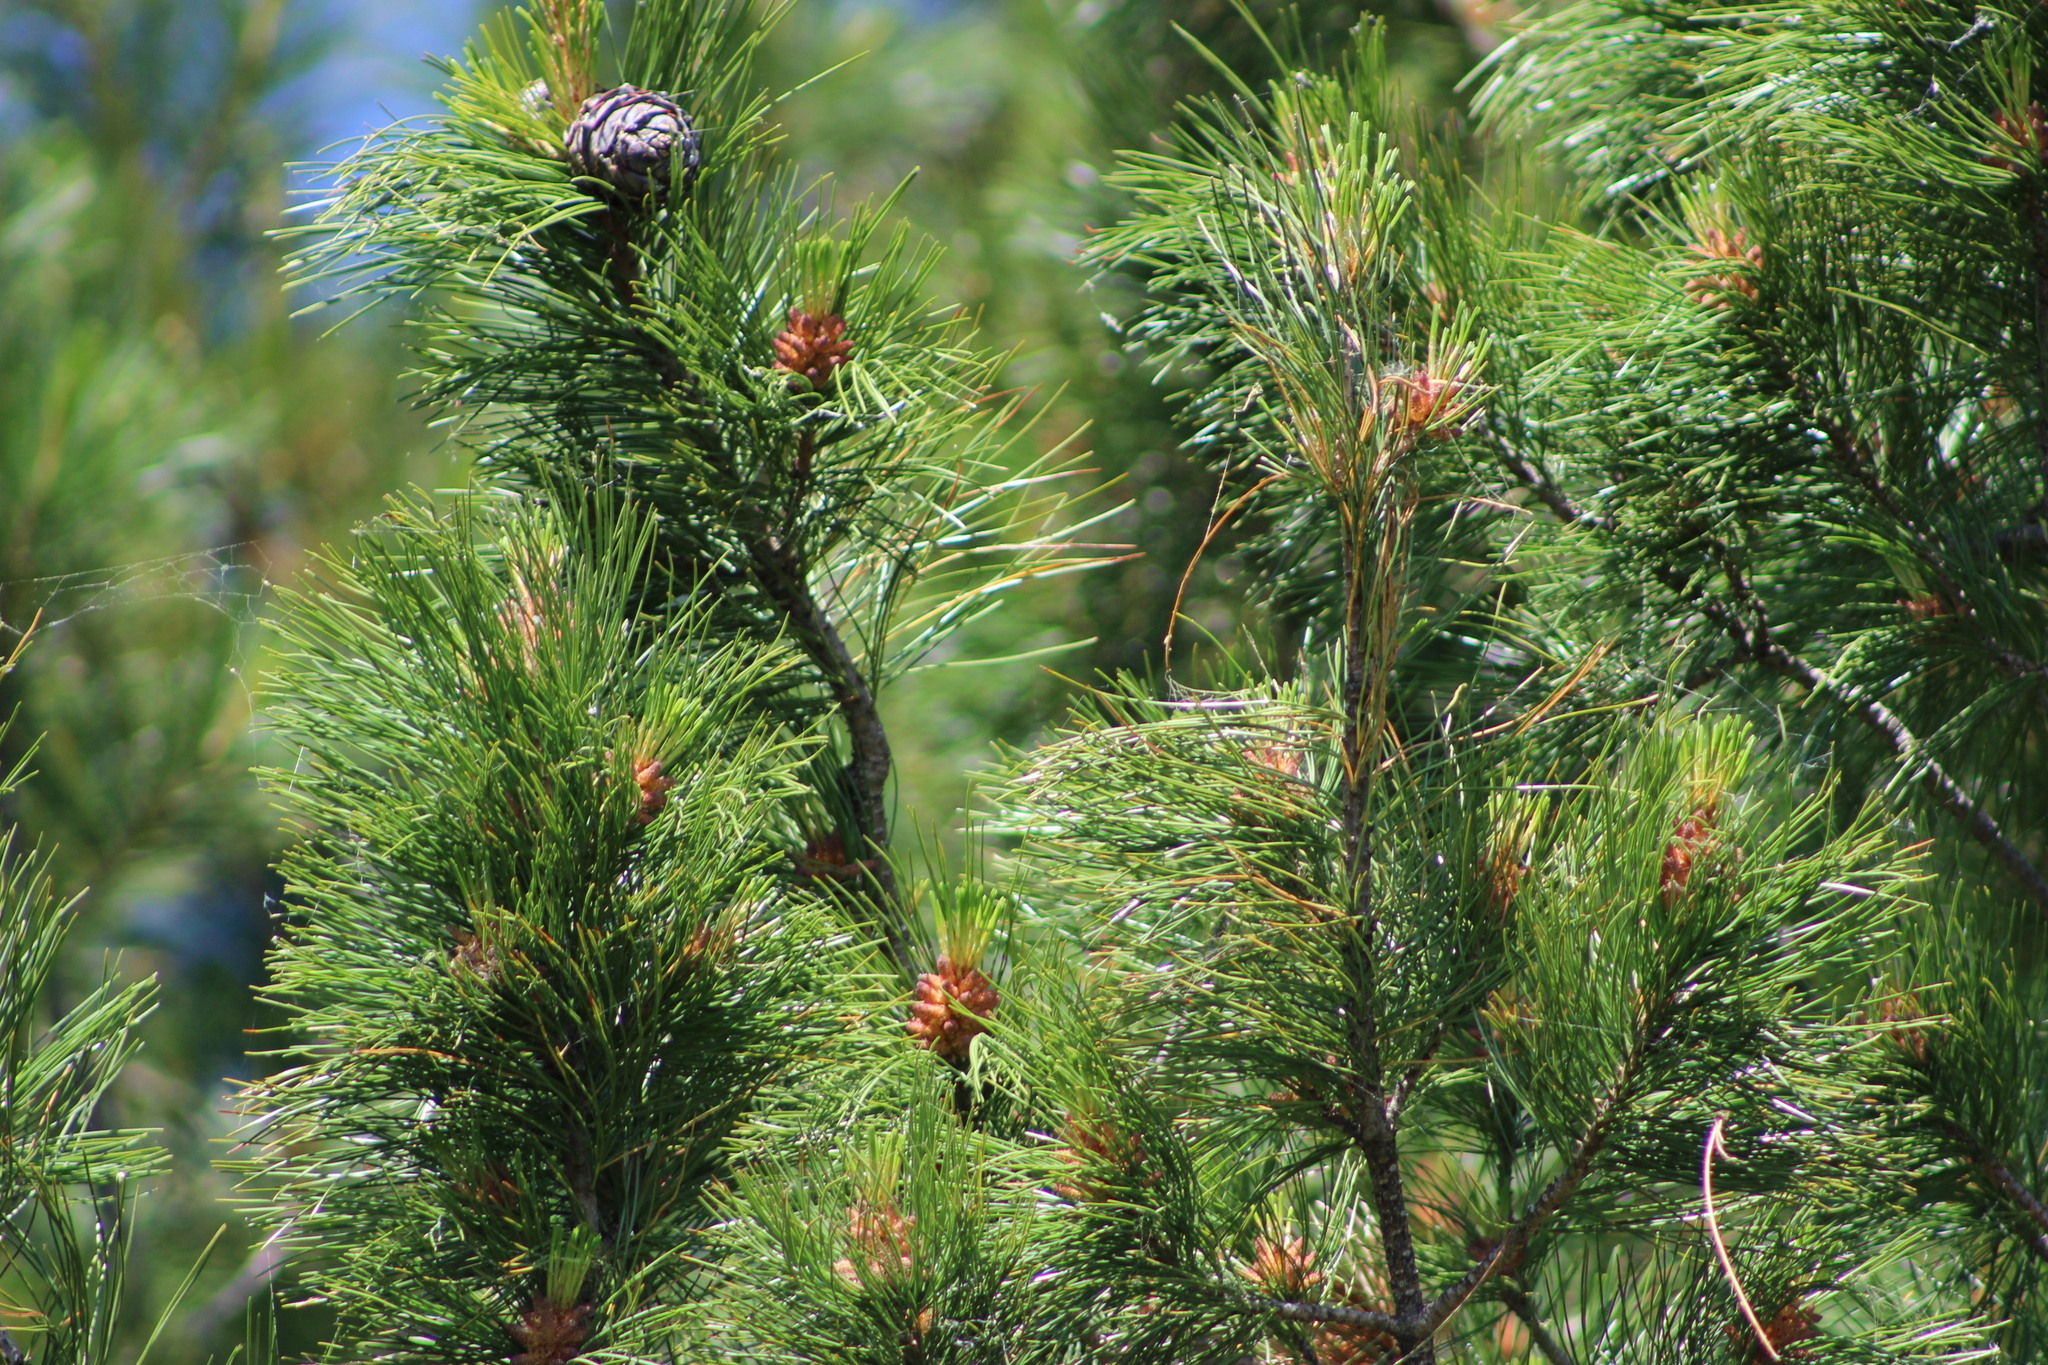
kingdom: Plantae
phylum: Tracheophyta
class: Pinopsida
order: Pinales
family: Pinaceae
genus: Pinus
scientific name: Pinus sibirica
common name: Siberian pine
